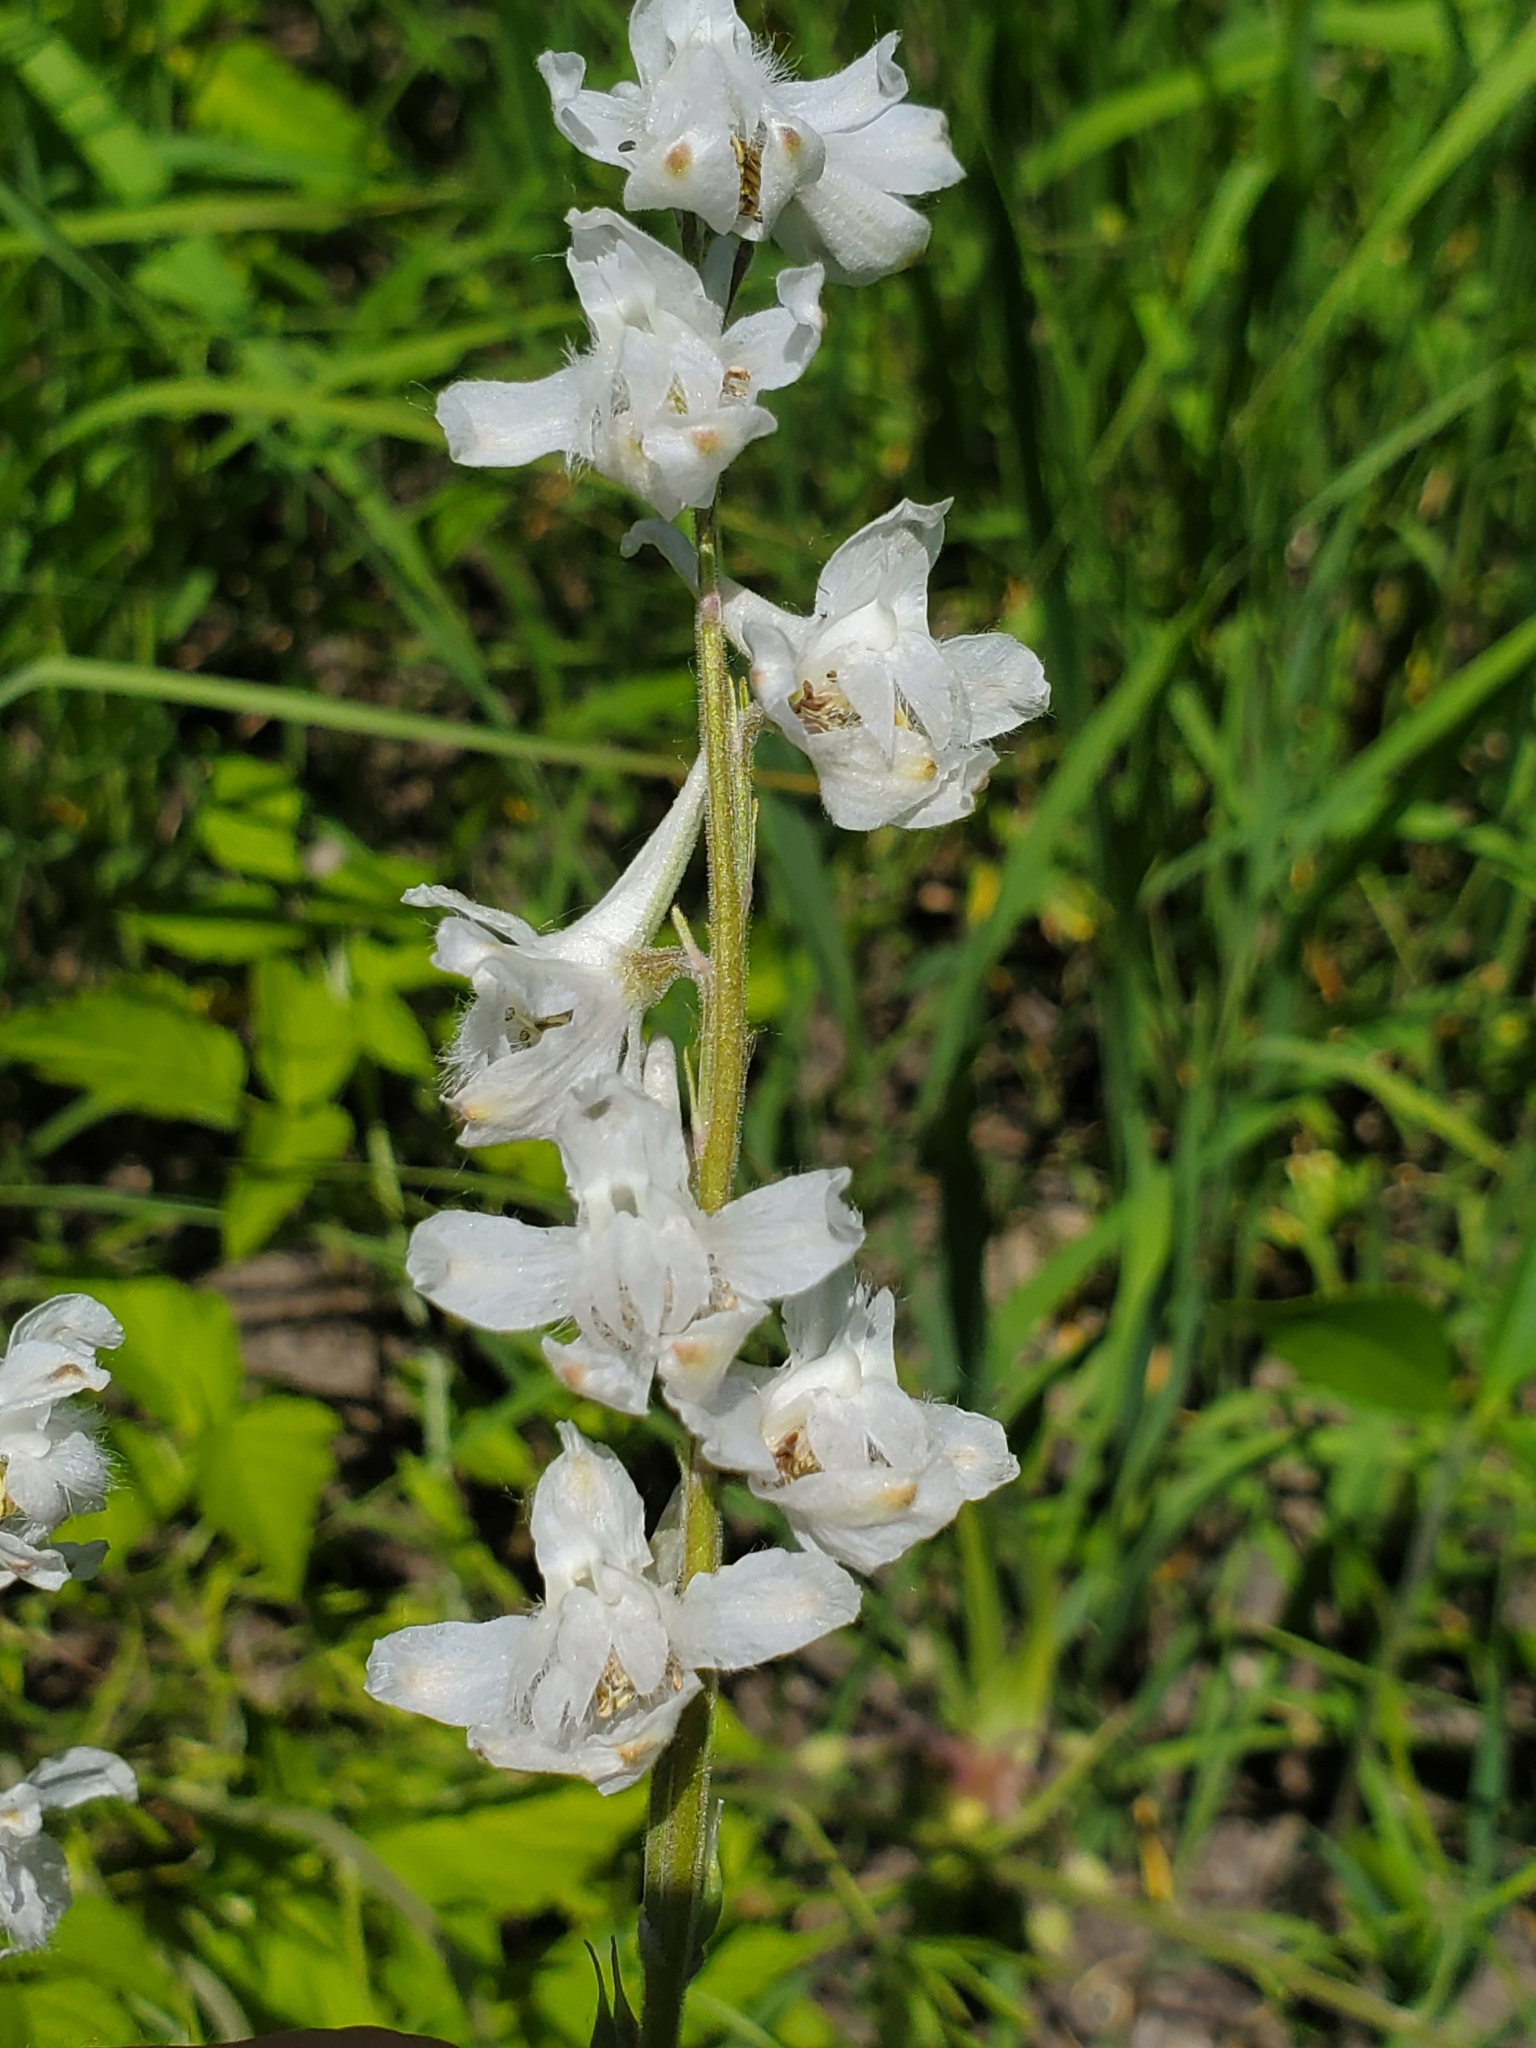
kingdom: Plantae
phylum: Tracheophyta
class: Magnoliopsida
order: Ranunculales
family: Ranunculaceae
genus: Delphinium
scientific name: Delphinium carolinianum
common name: Carolina larkspur
